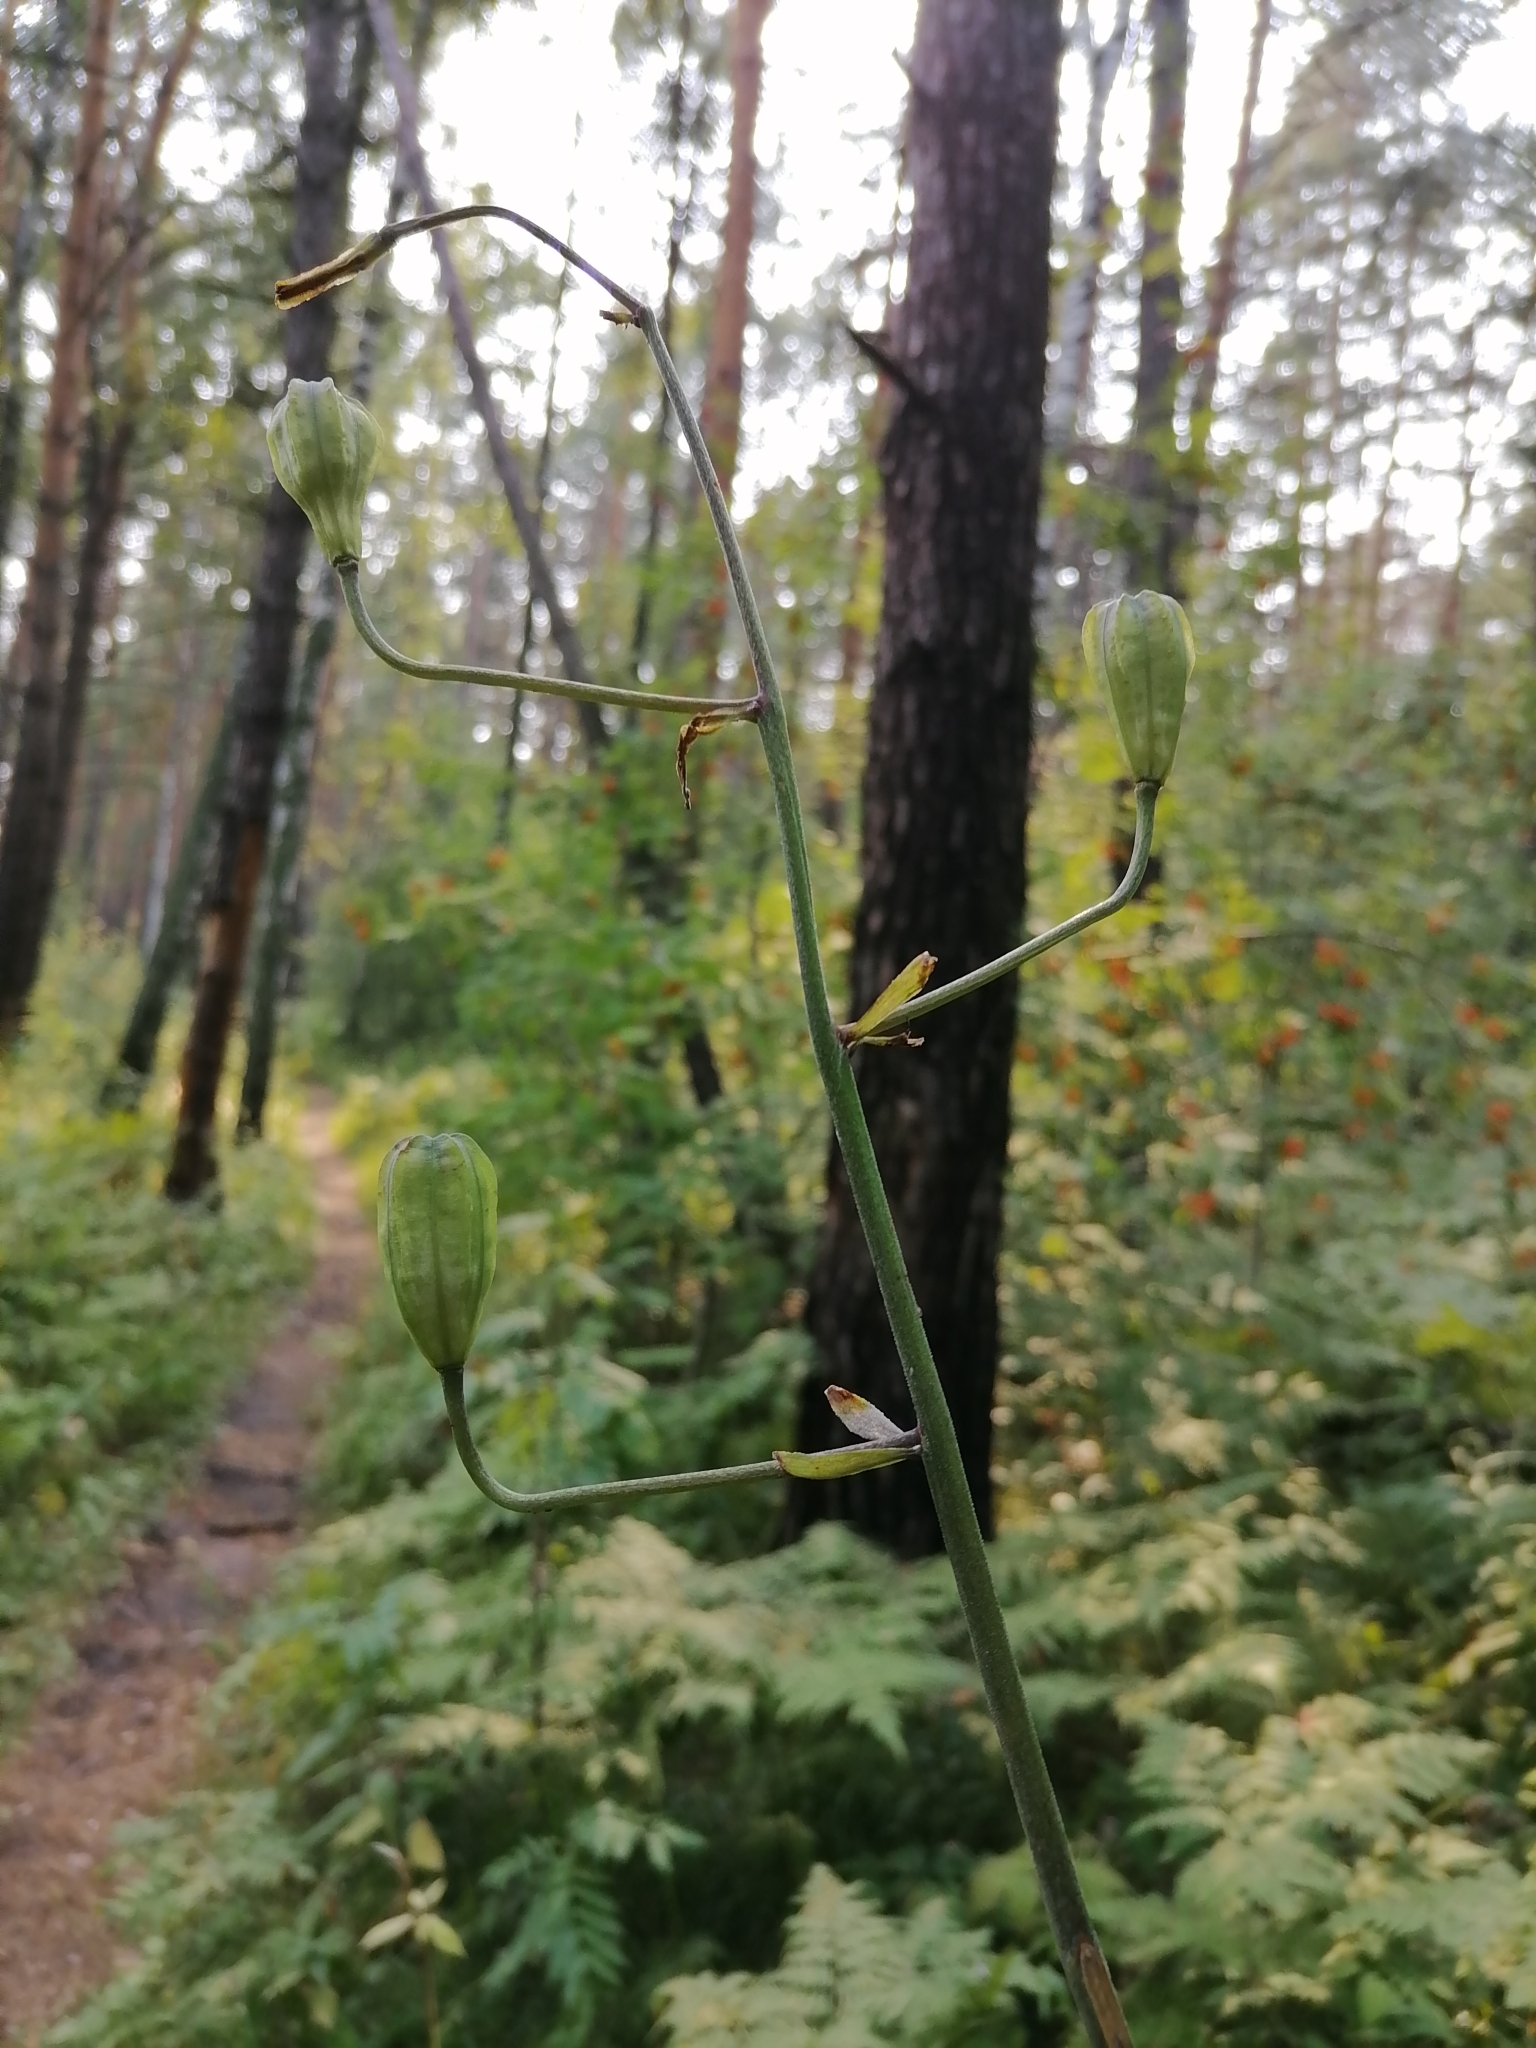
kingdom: Plantae
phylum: Tracheophyta
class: Liliopsida
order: Liliales
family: Liliaceae
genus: Lilium
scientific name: Lilium martagon
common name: Martagon lily
